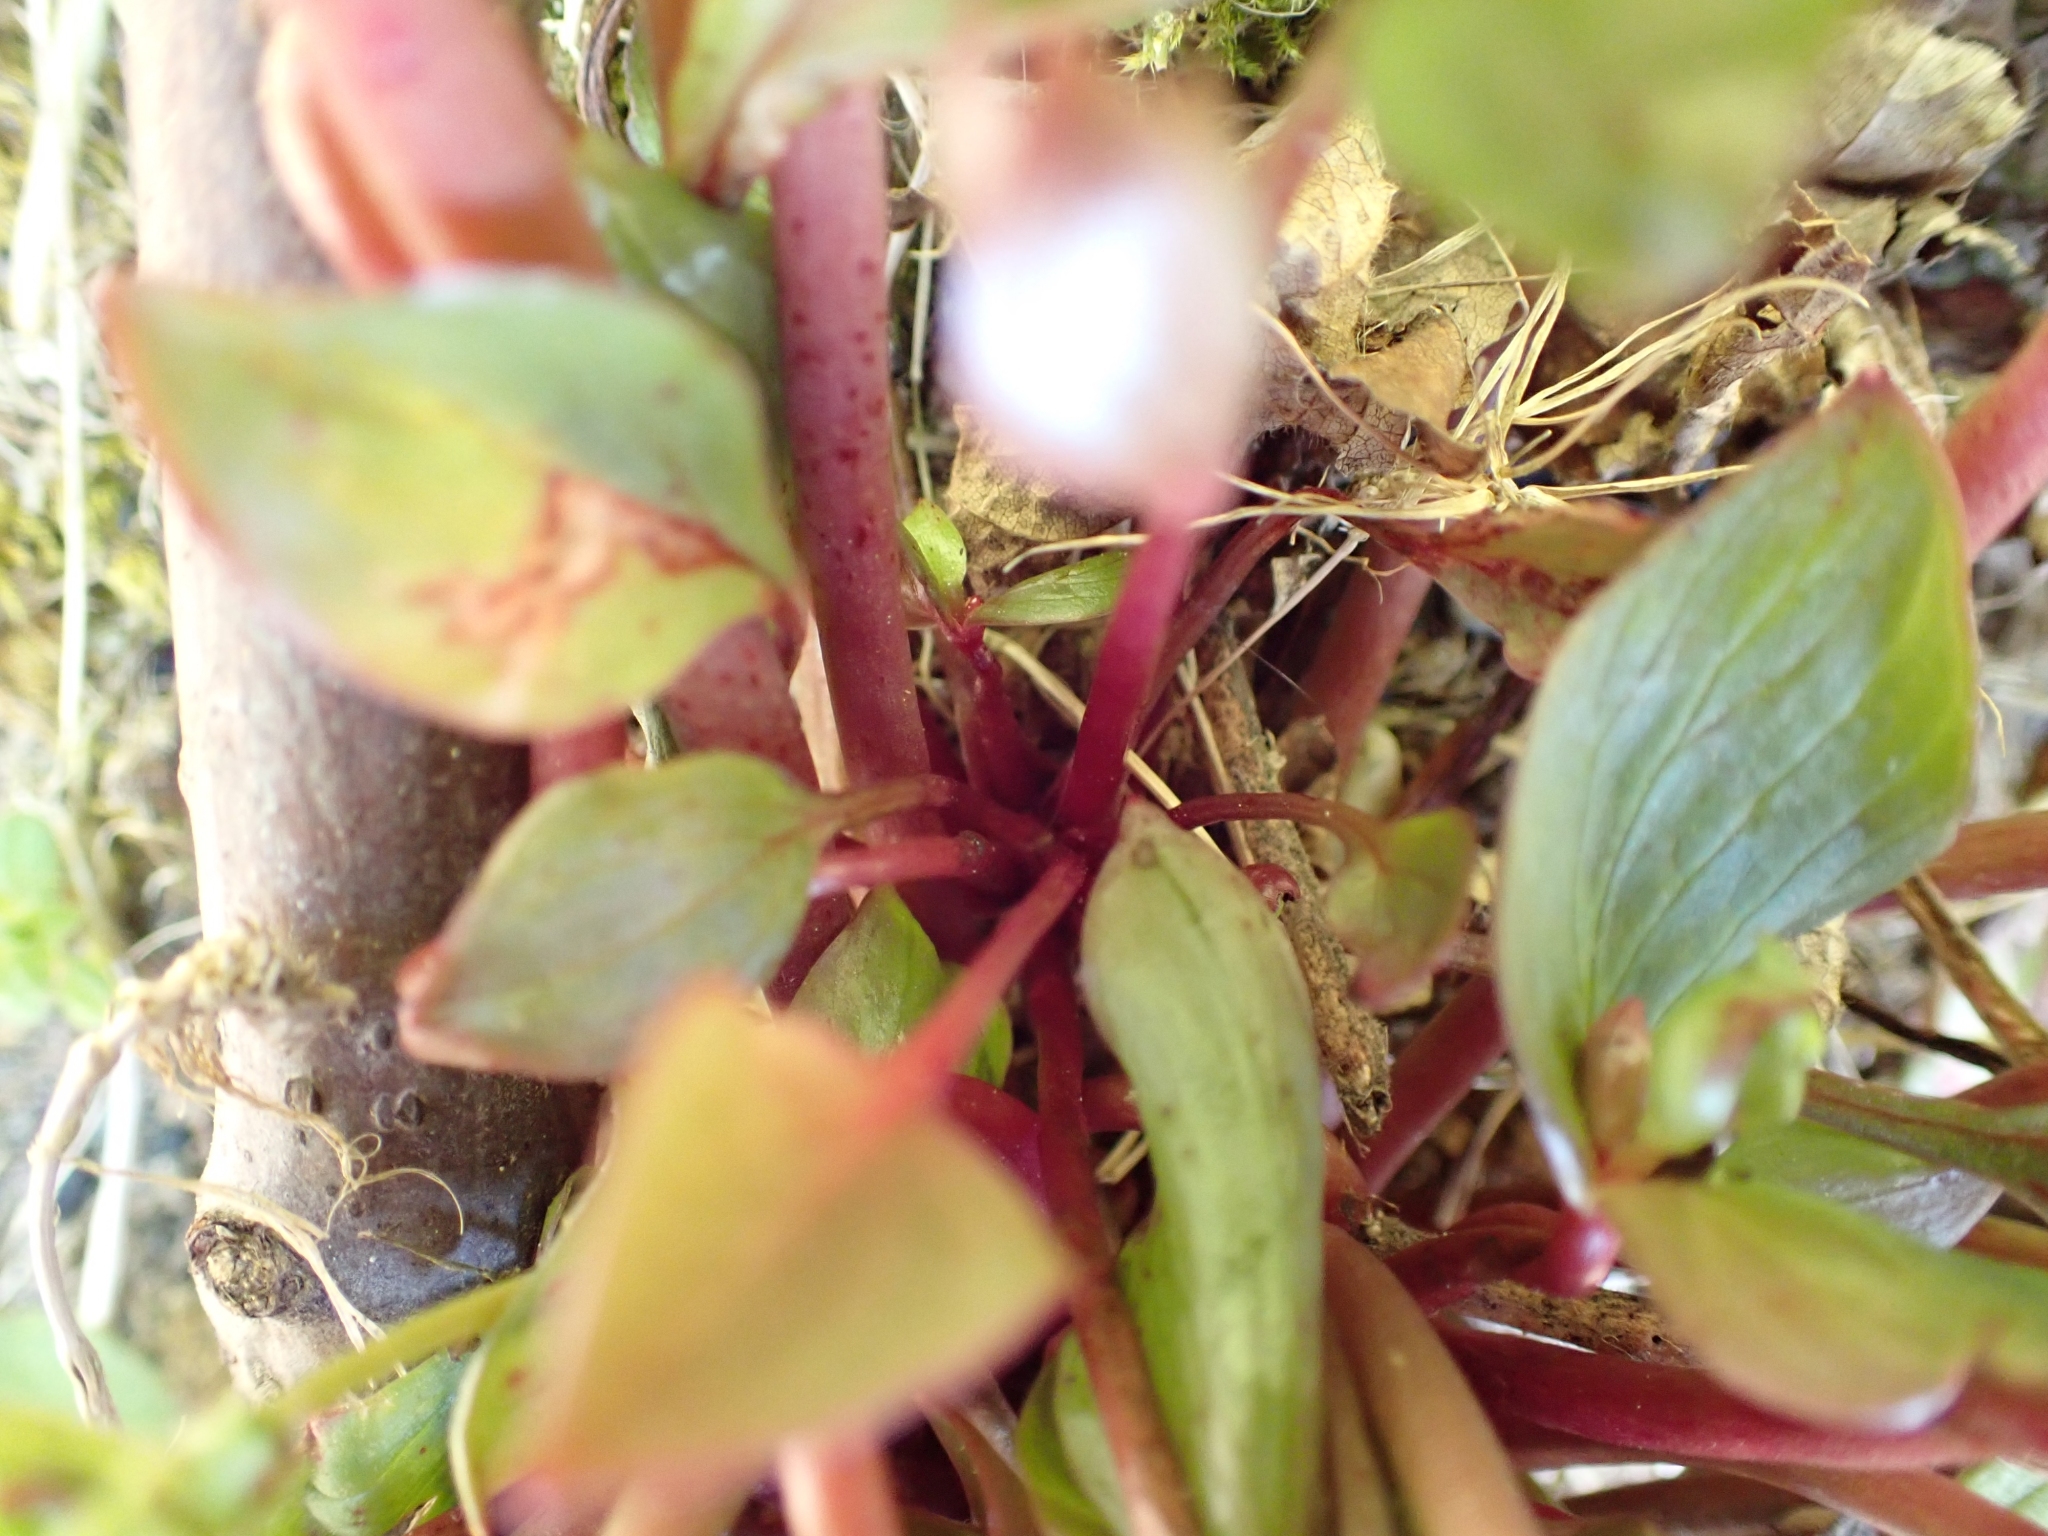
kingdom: Plantae
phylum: Tracheophyta
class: Magnoliopsida
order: Caryophyllales
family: Montiaceae
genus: Claytonia
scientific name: Claytonia sibirica
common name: Pink purslane
